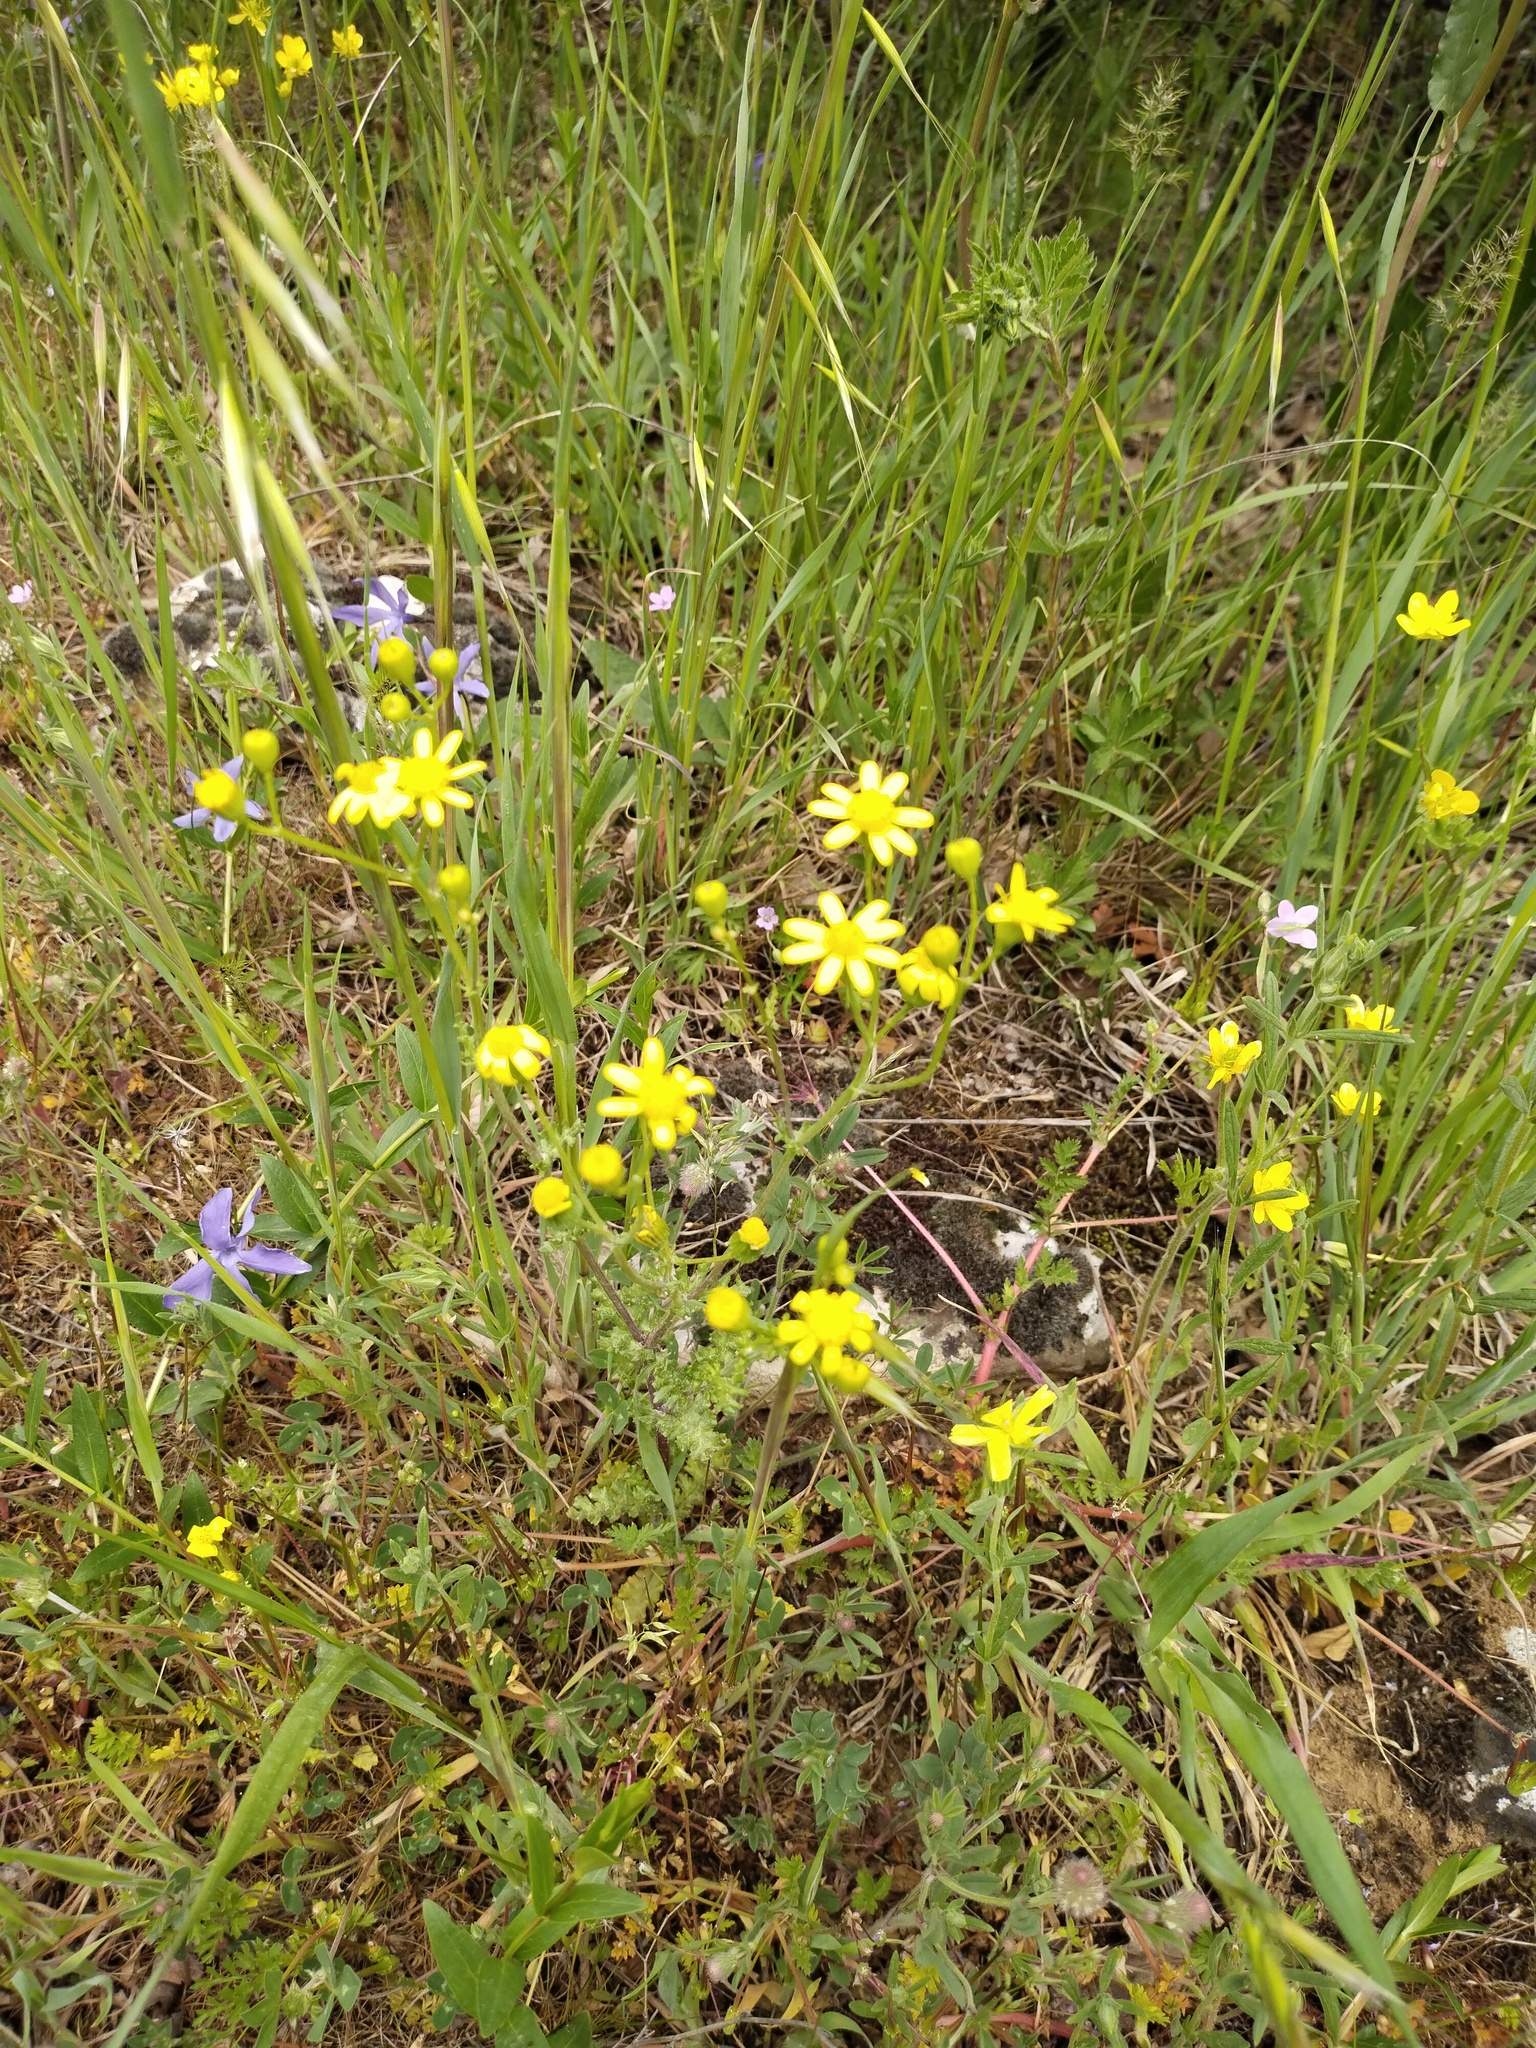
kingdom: Plantae
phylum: Tracheophyta
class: Magnoliopsida
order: Asterales
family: Asteraceae
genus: Senecio
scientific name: Senecio vernalis
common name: Eastern groundsel
